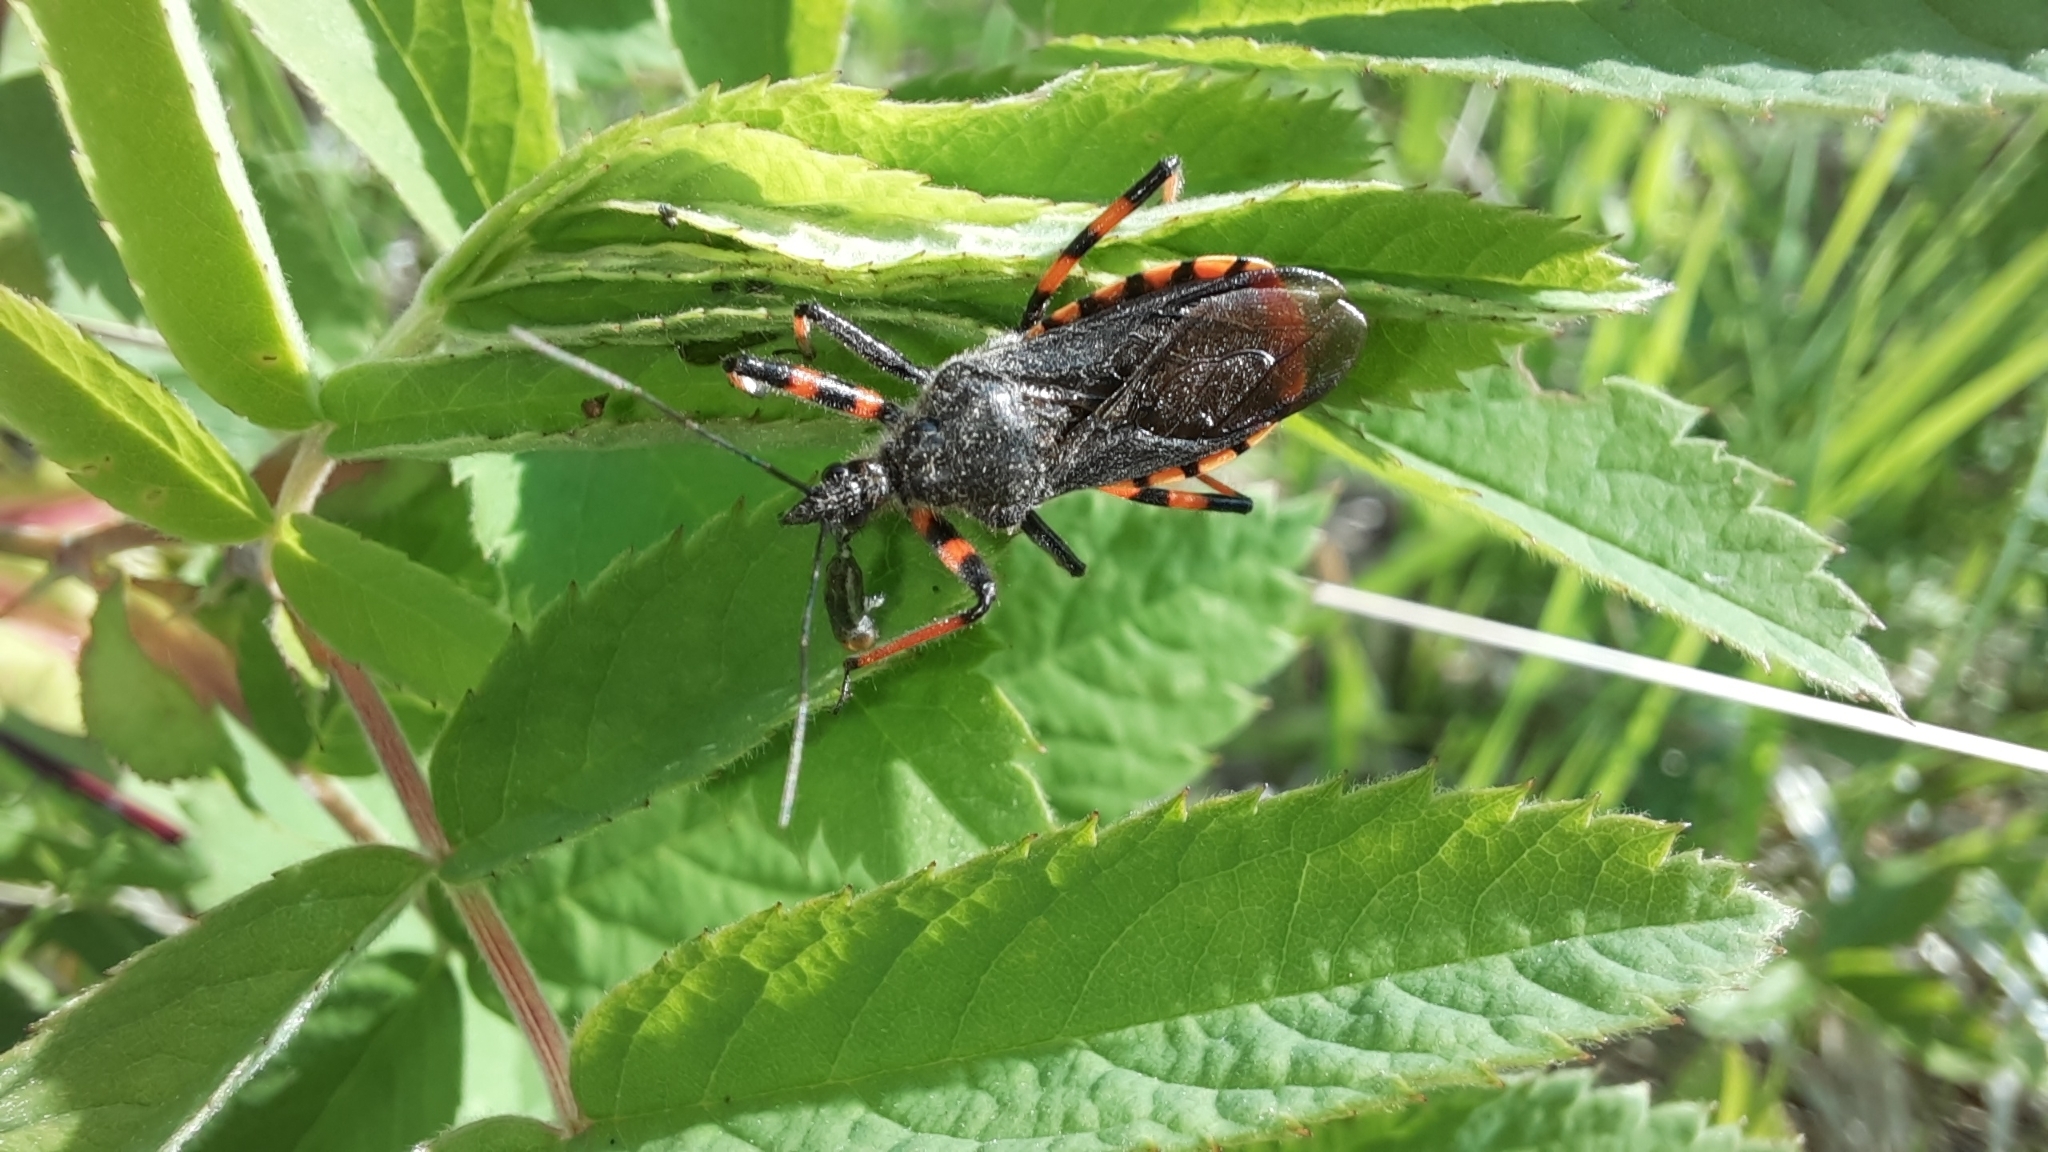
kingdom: Animalia
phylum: Arthropoda
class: Insecta
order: Hemiptera
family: Reduviidae
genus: Rhynocoris
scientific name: Rhynocoris annulatus
